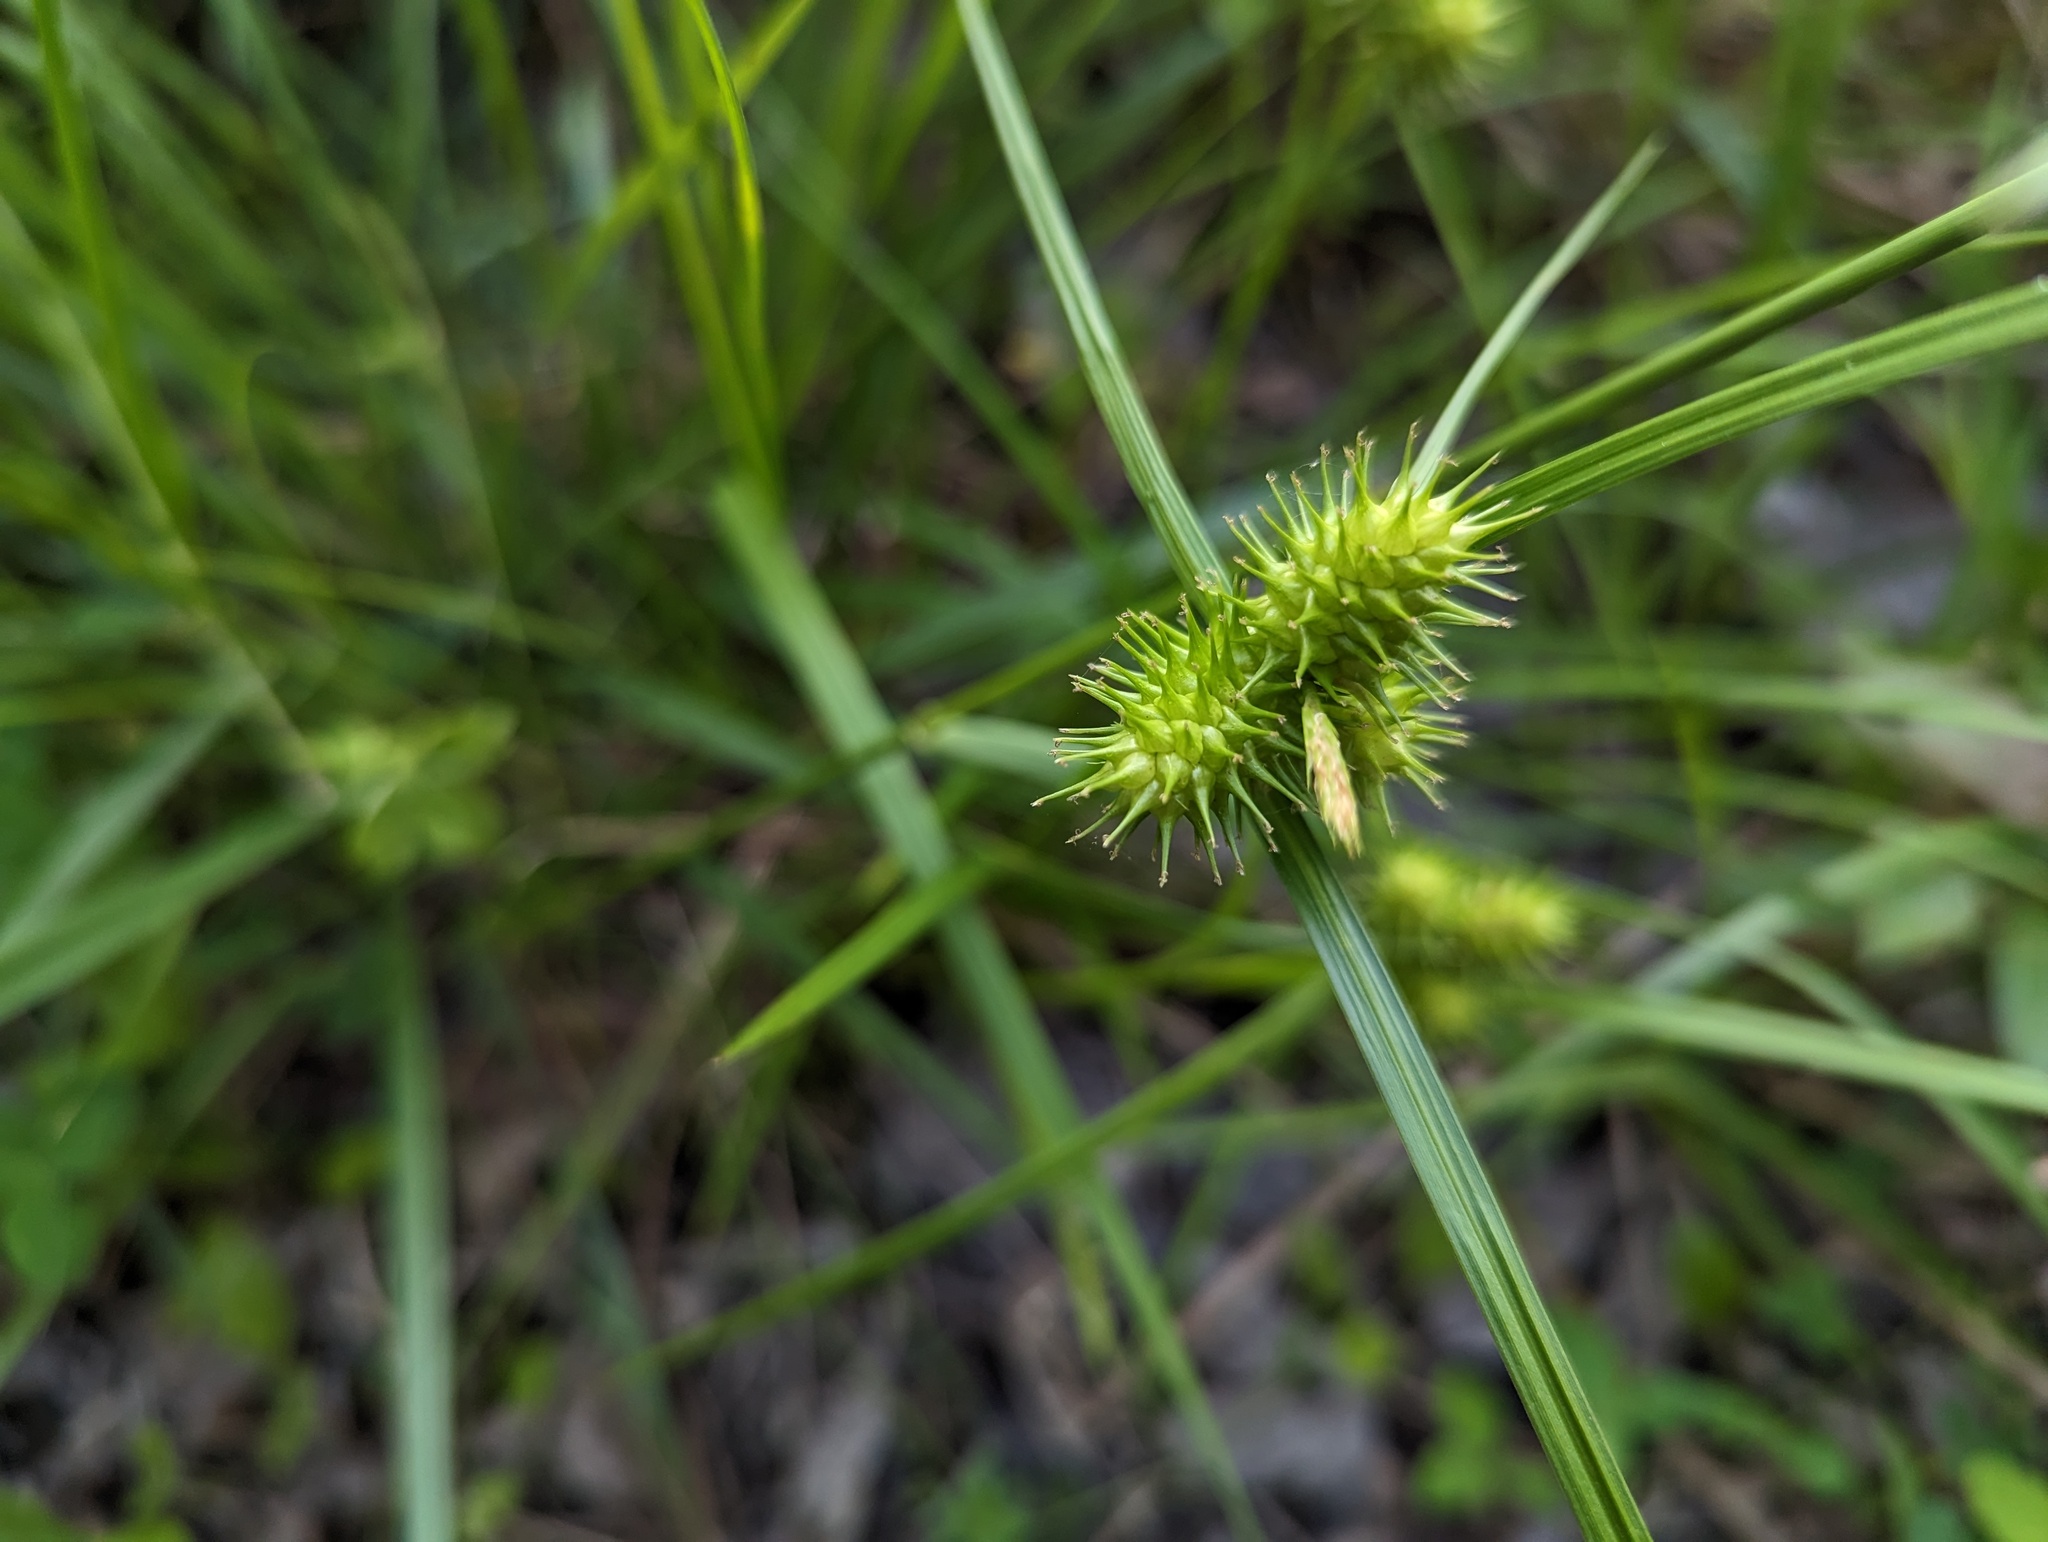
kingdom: Plantae
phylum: Tracheophyta
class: Liliopsida
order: Poales
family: Cyperaceae
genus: Carex
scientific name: Carex lurida
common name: Sallow sedge
